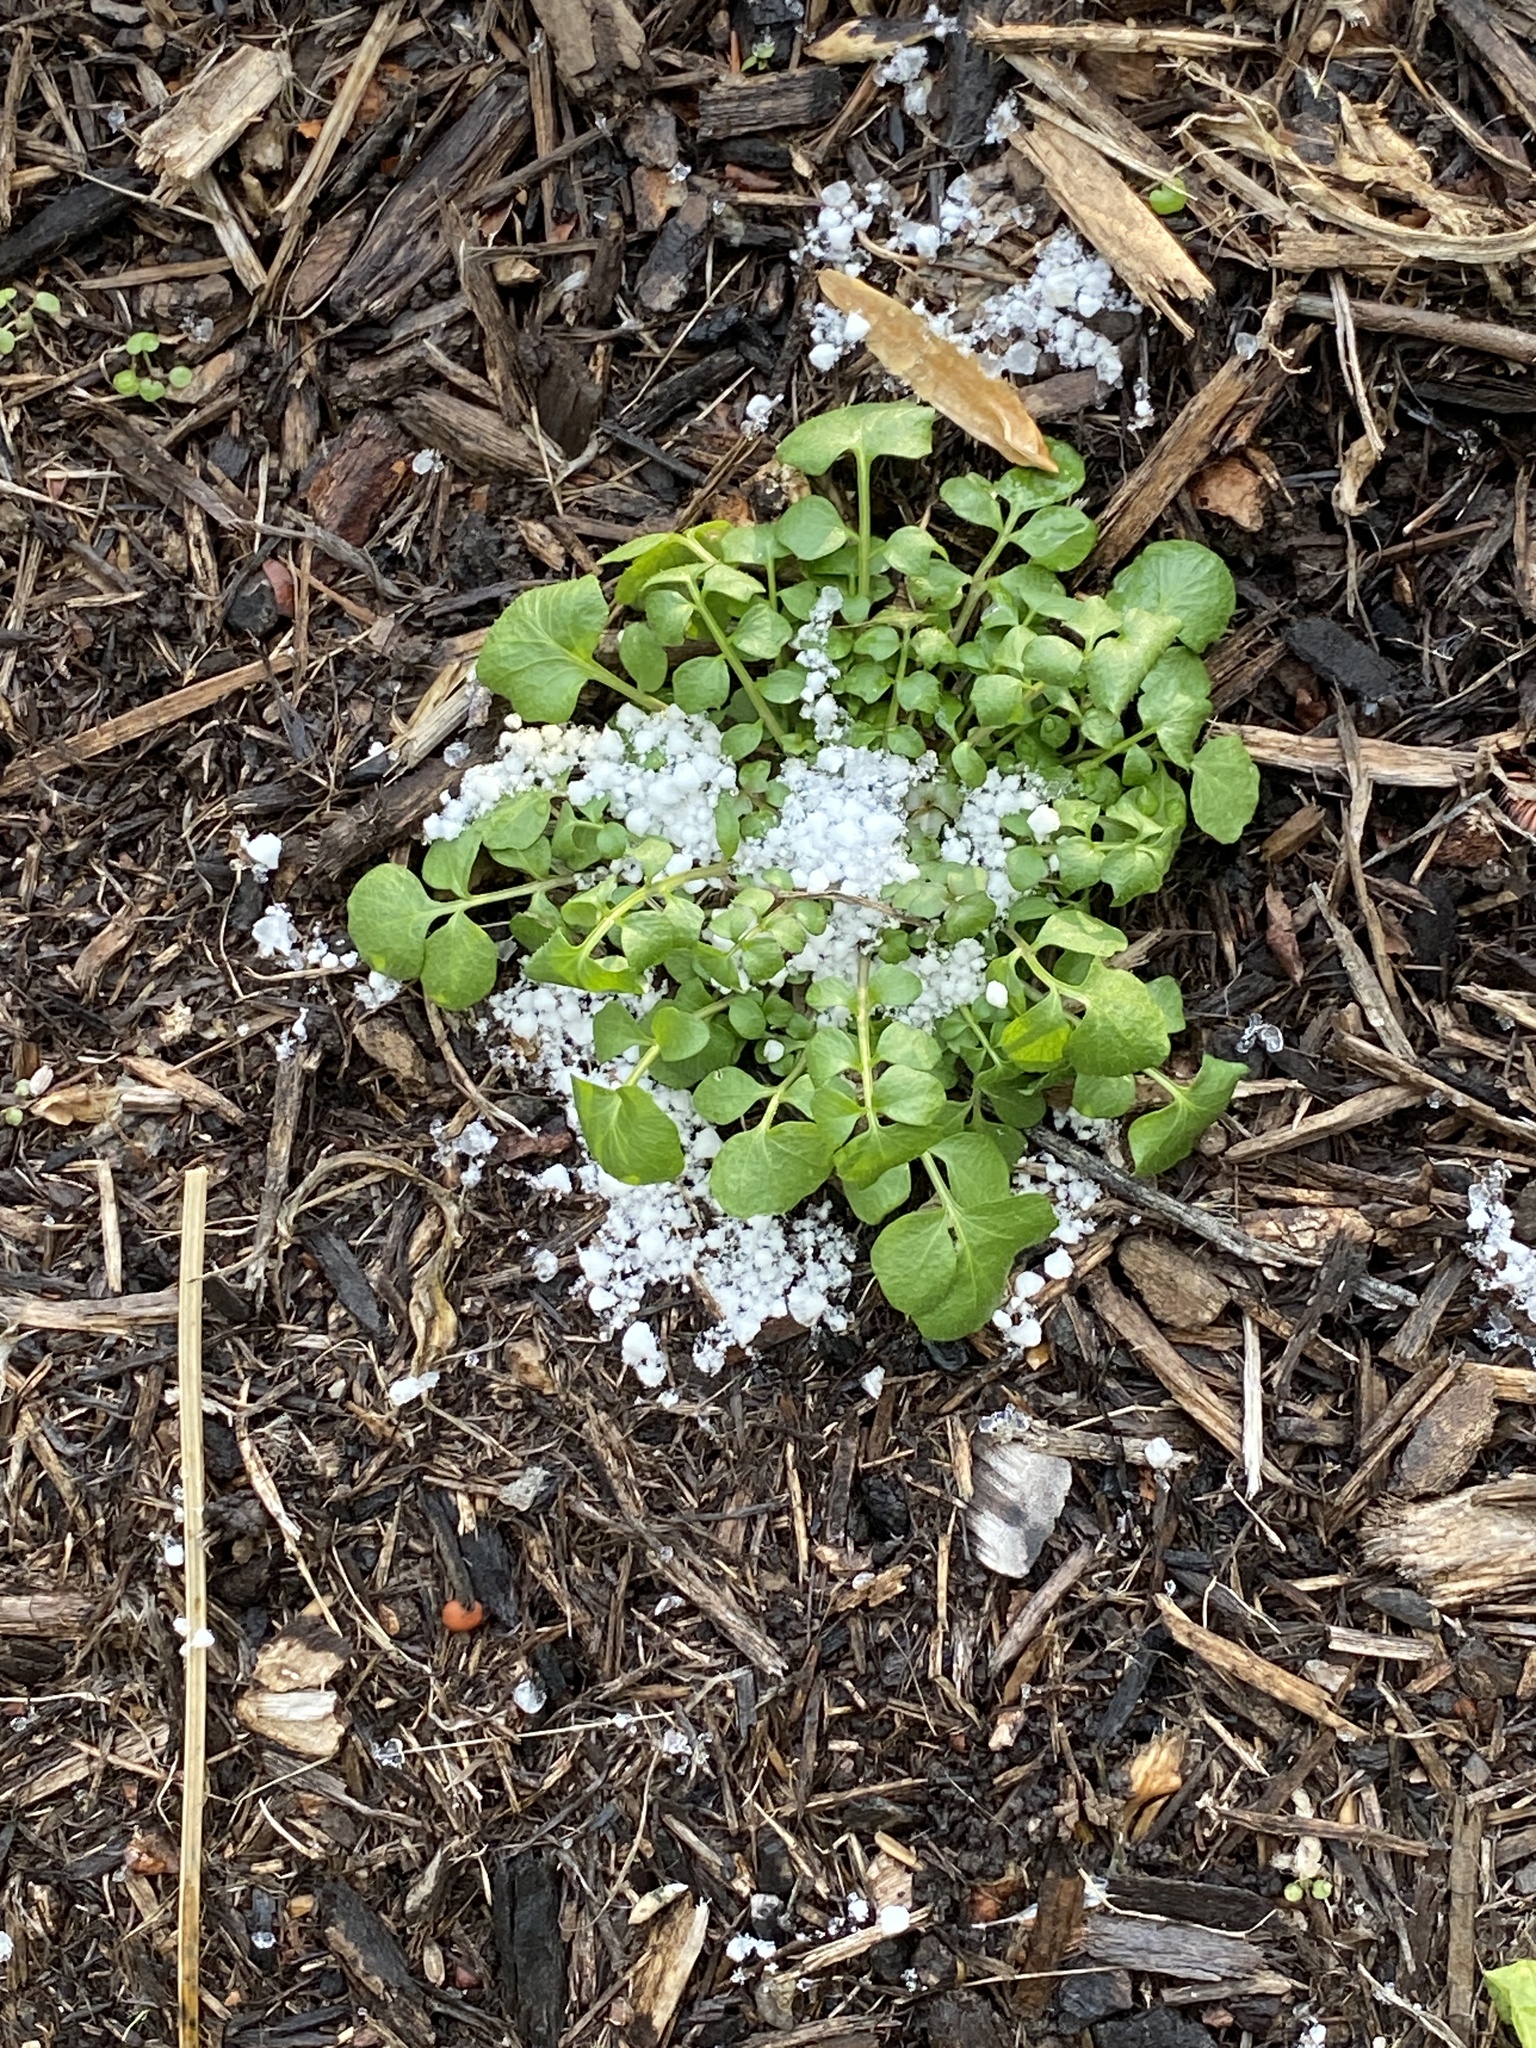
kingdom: Plantae
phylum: Tracheophyta
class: Magnoliopsida
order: Brassicales
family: Brassicaceae
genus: Cardamine
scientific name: Cardamine hirsuta
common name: Hairy bittercress
